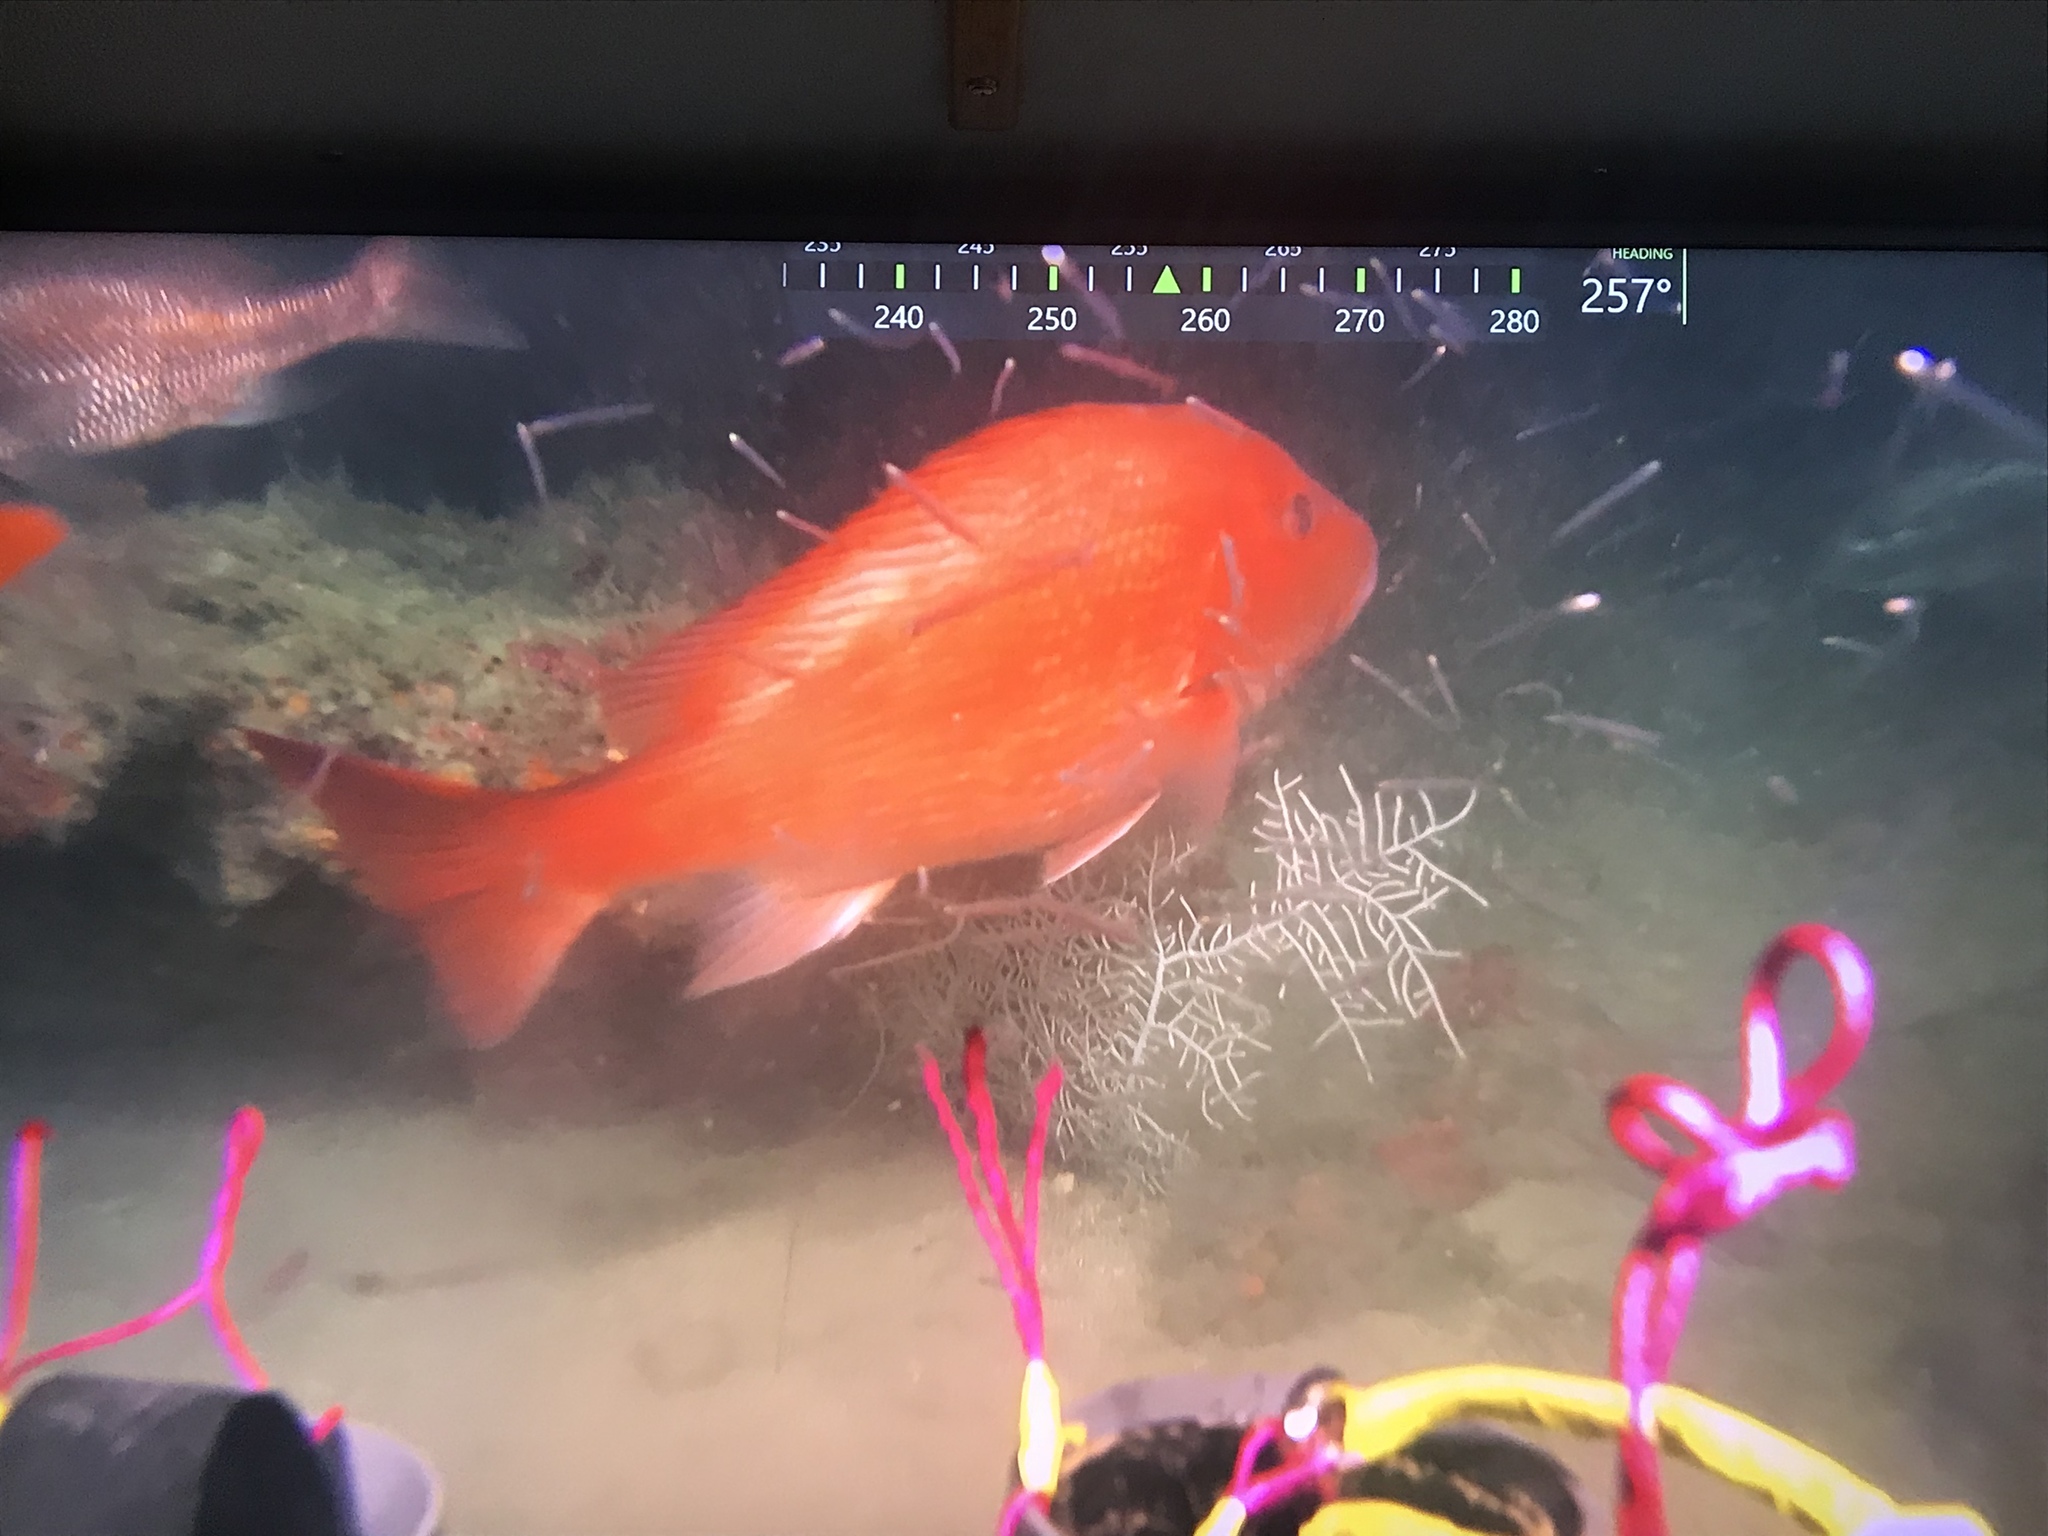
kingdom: Animalia
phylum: Chordata
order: Perciformes
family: Lutjanidae
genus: Lutjanus
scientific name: Lutjanus campechanus
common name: Red snapper
